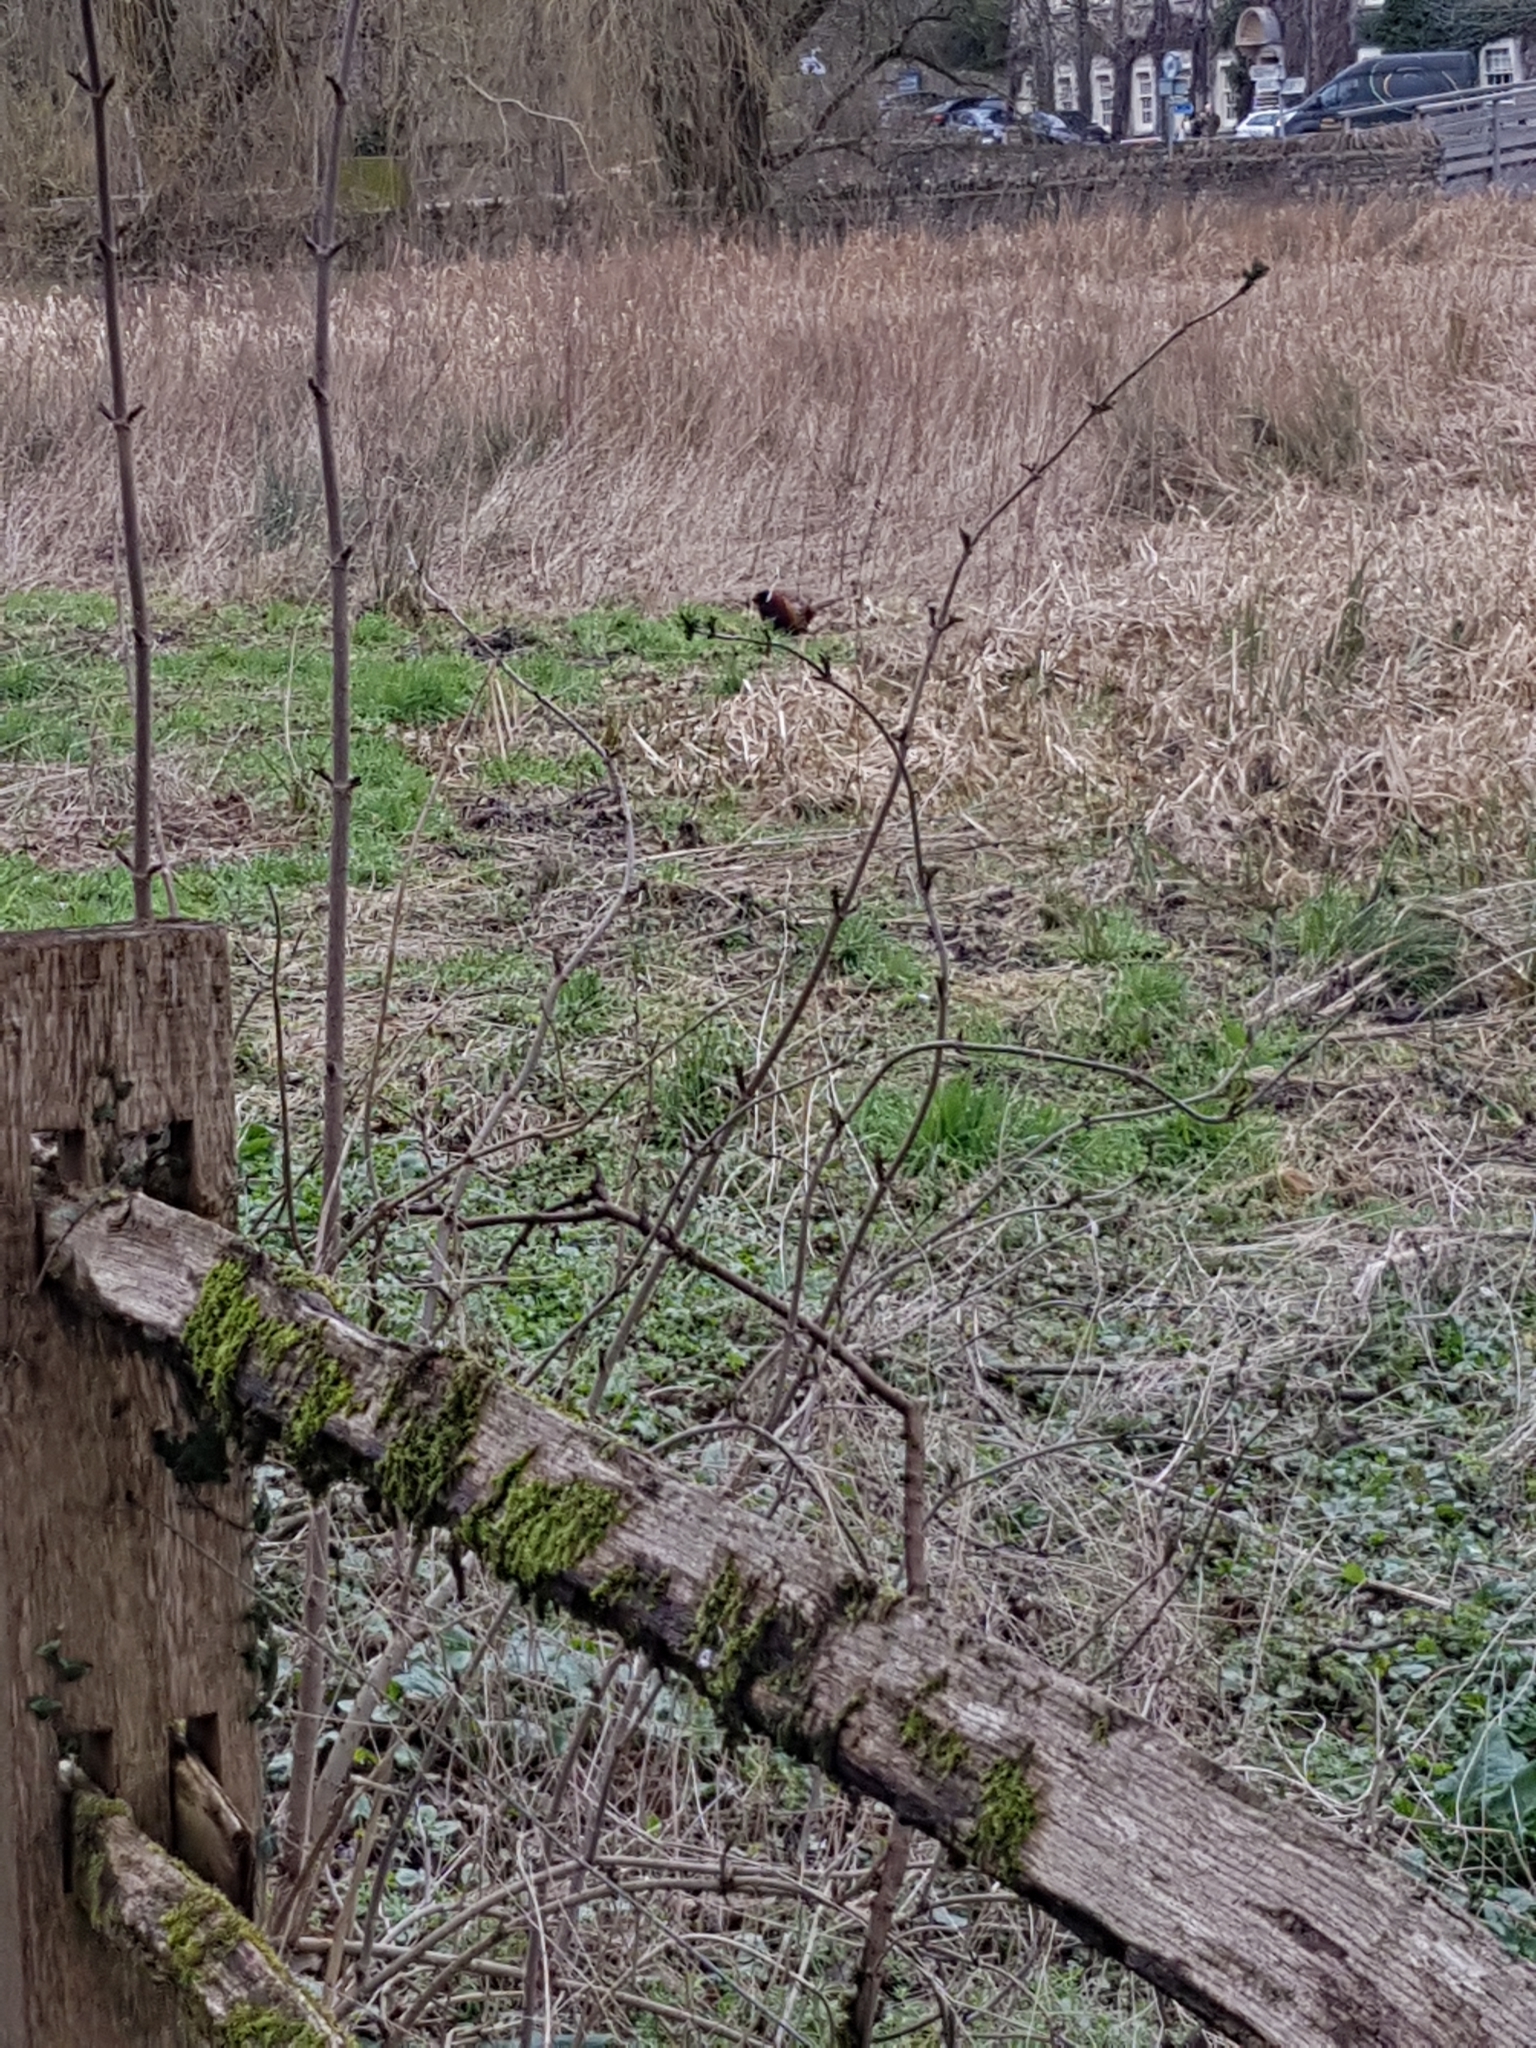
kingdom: Animalia
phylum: Chordata
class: Aves
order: Galliformes
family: Phasianidae
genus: Phasianus
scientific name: Phasianus colchicus
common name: Common pheasant
